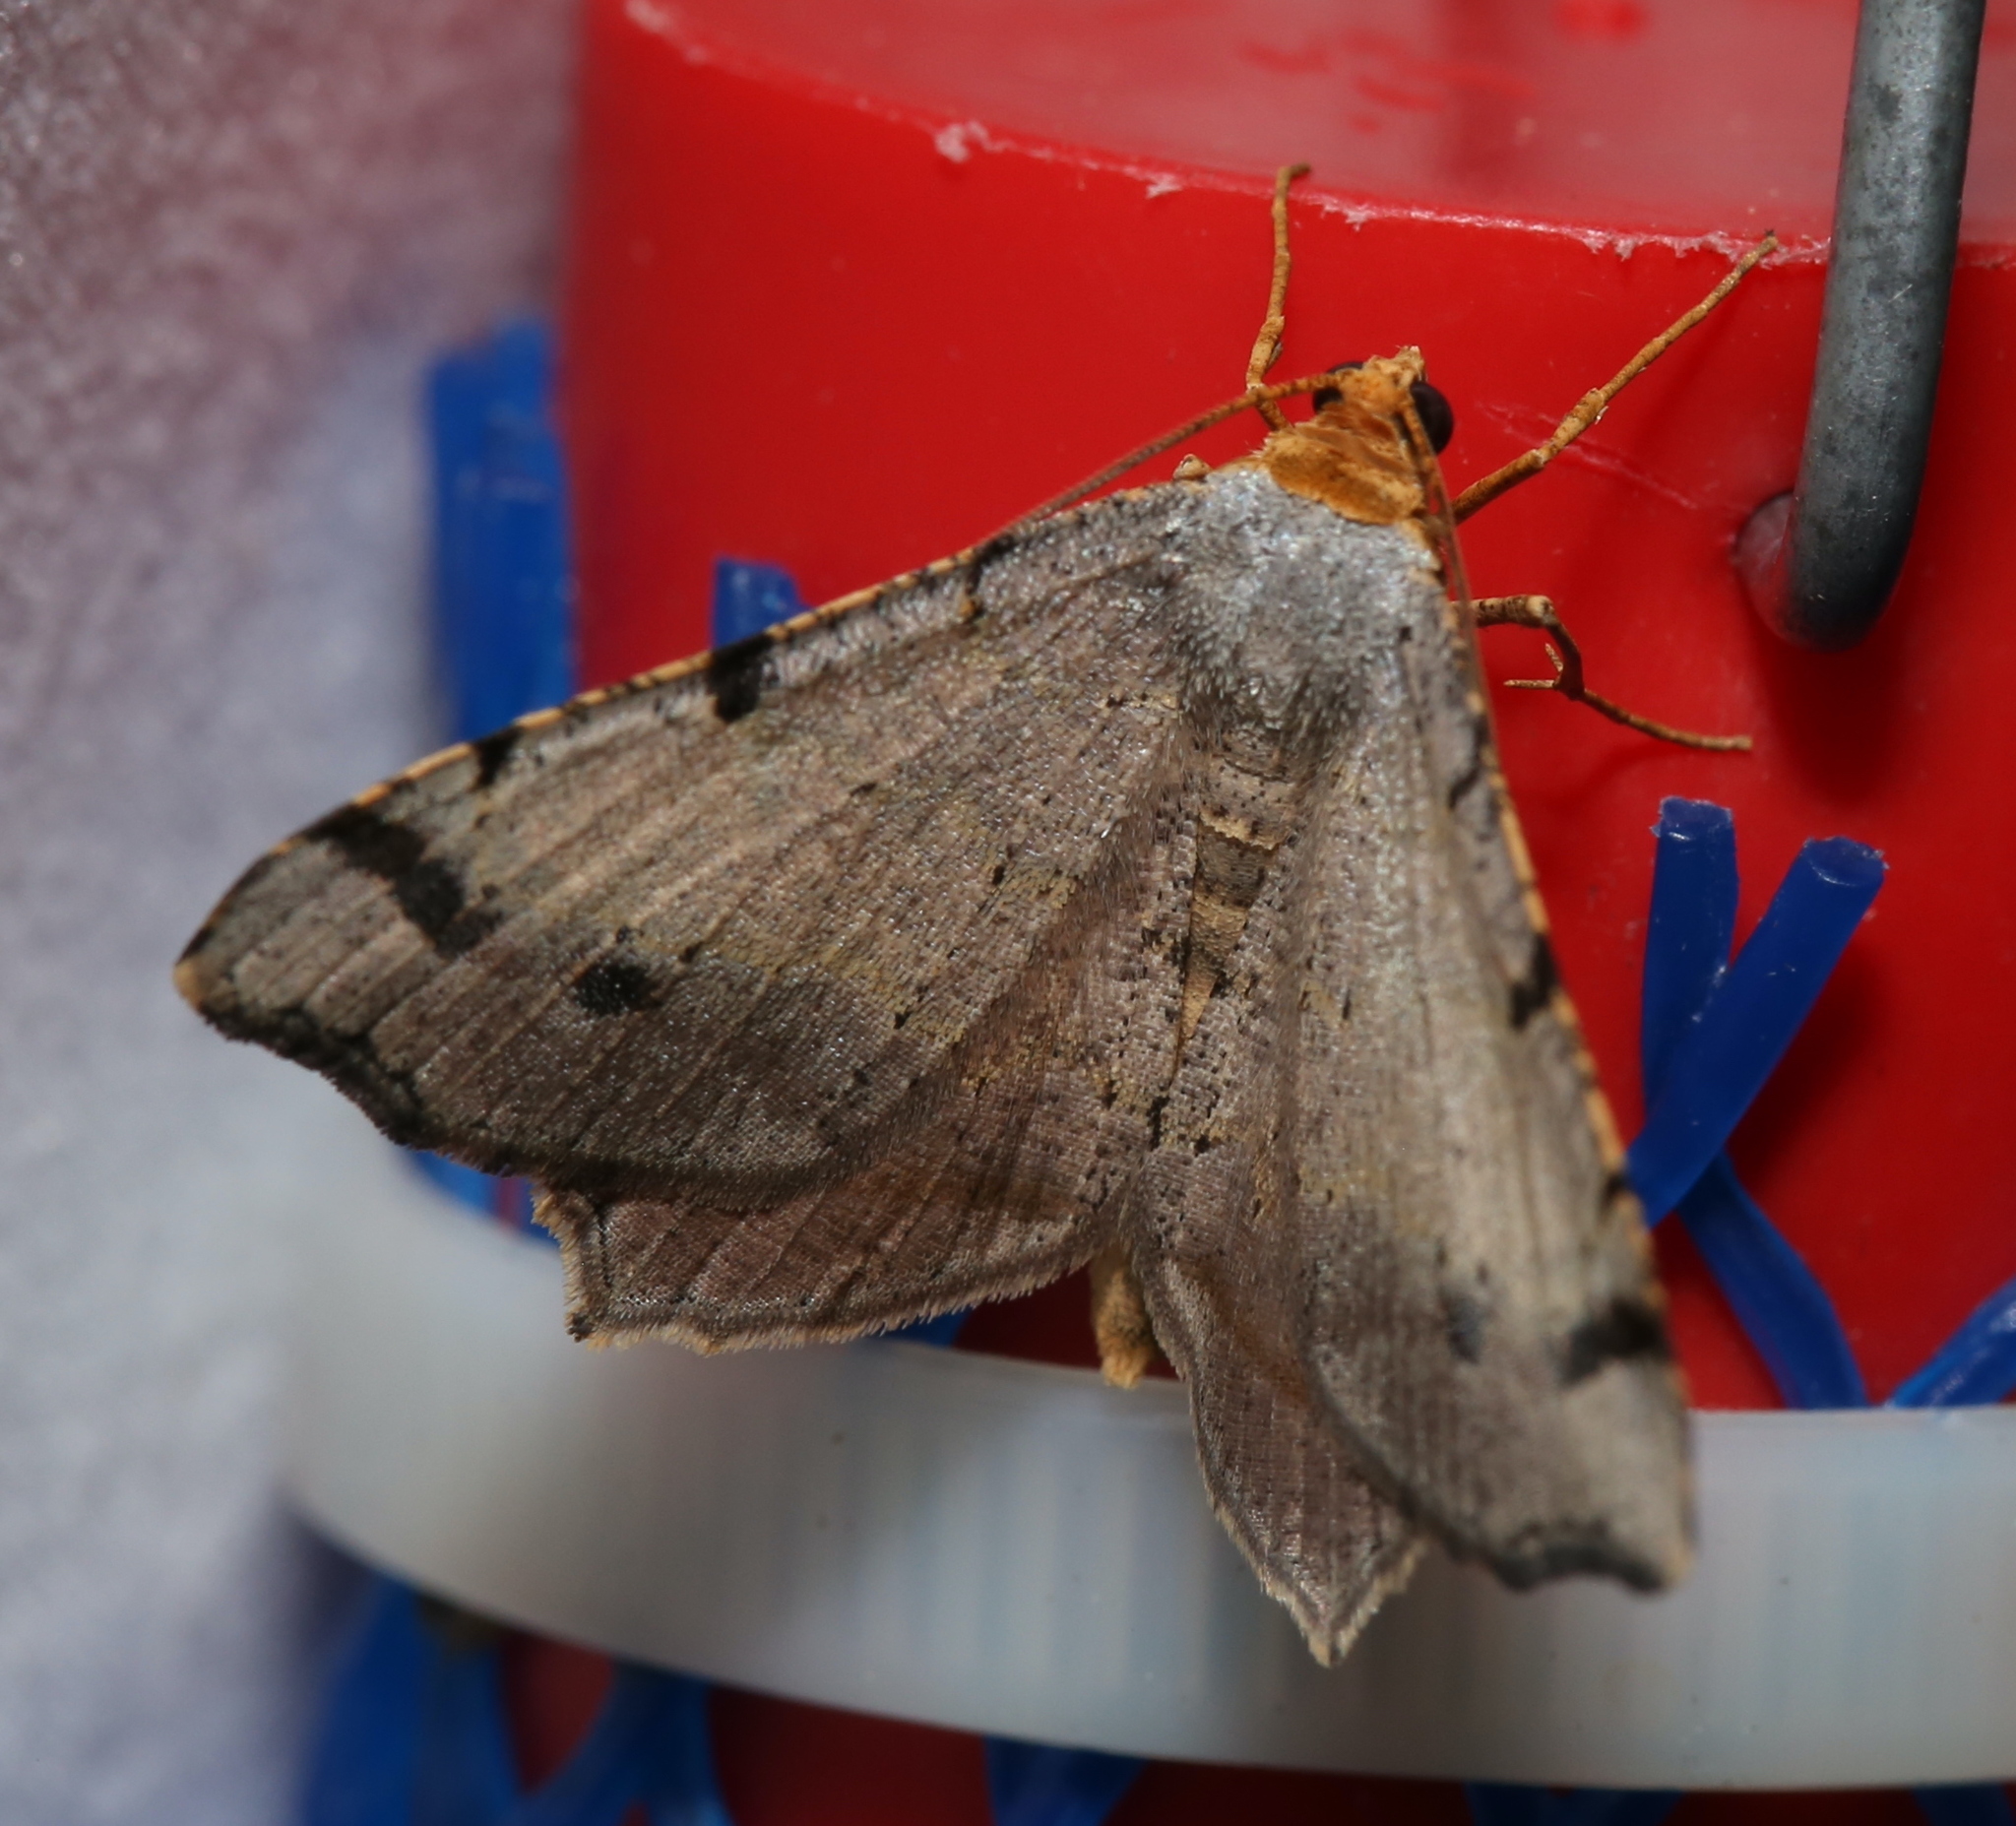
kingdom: Animalia
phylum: Arthropoda
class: Insecta
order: Lepidoptera
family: Geometridae
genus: Macaria
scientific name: Macaria bicolorata
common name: Dingy angle
